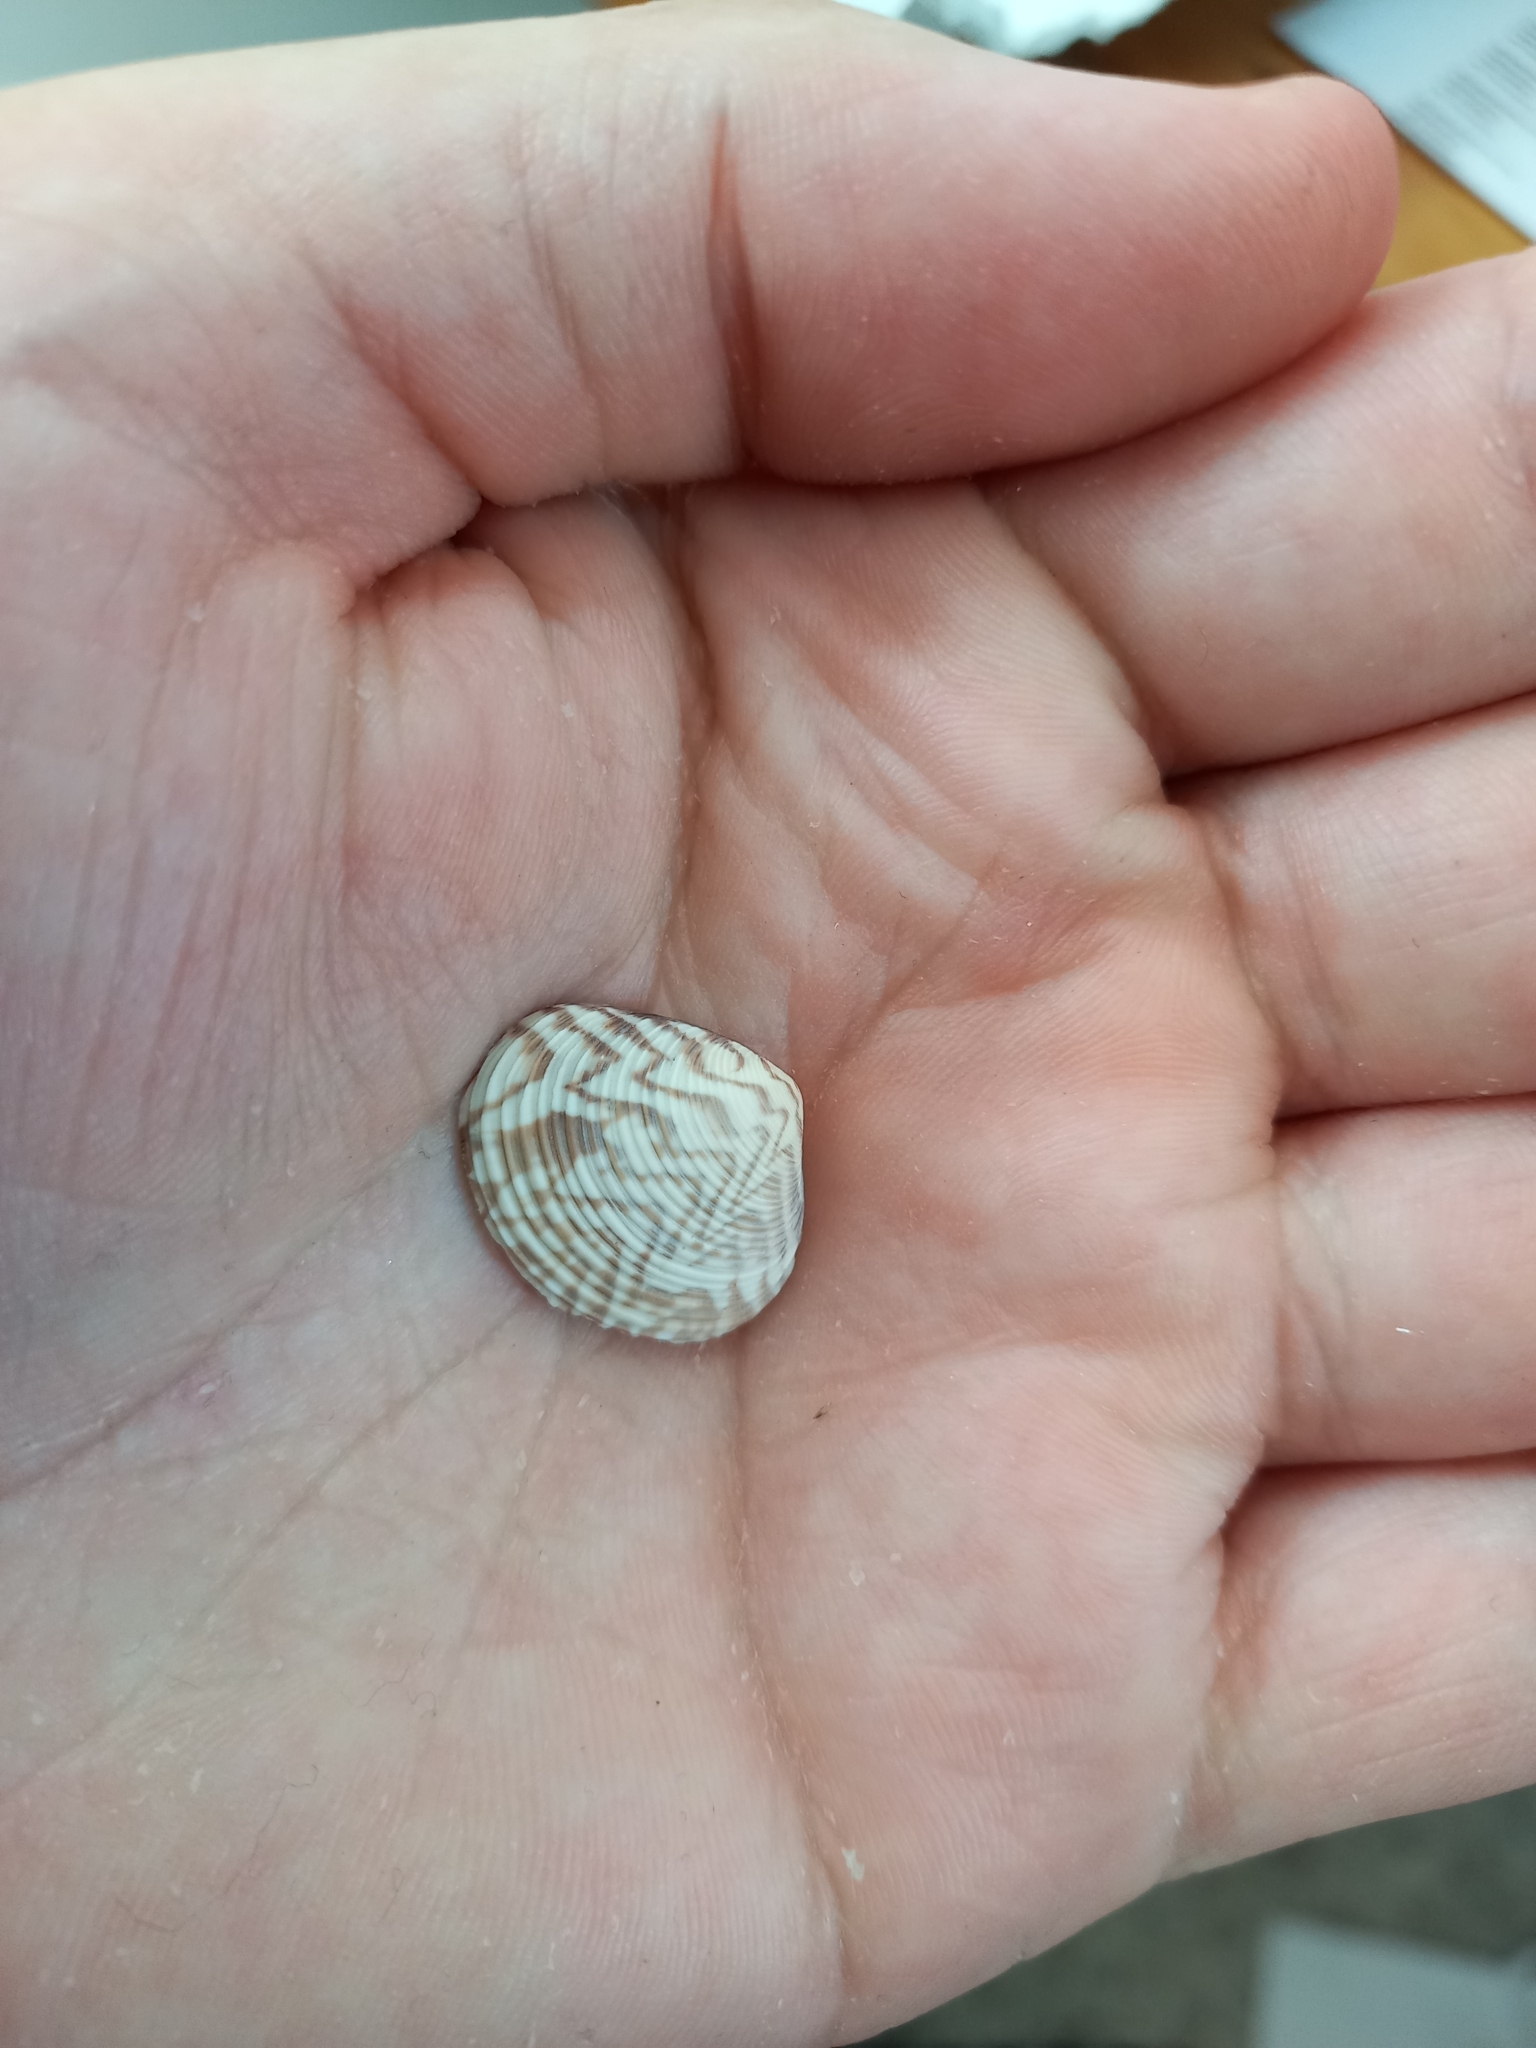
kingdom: Animalia
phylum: Mollusca
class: Bivalvia
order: Venerida
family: Veneridae
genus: Tawera
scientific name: Tawera spissa
